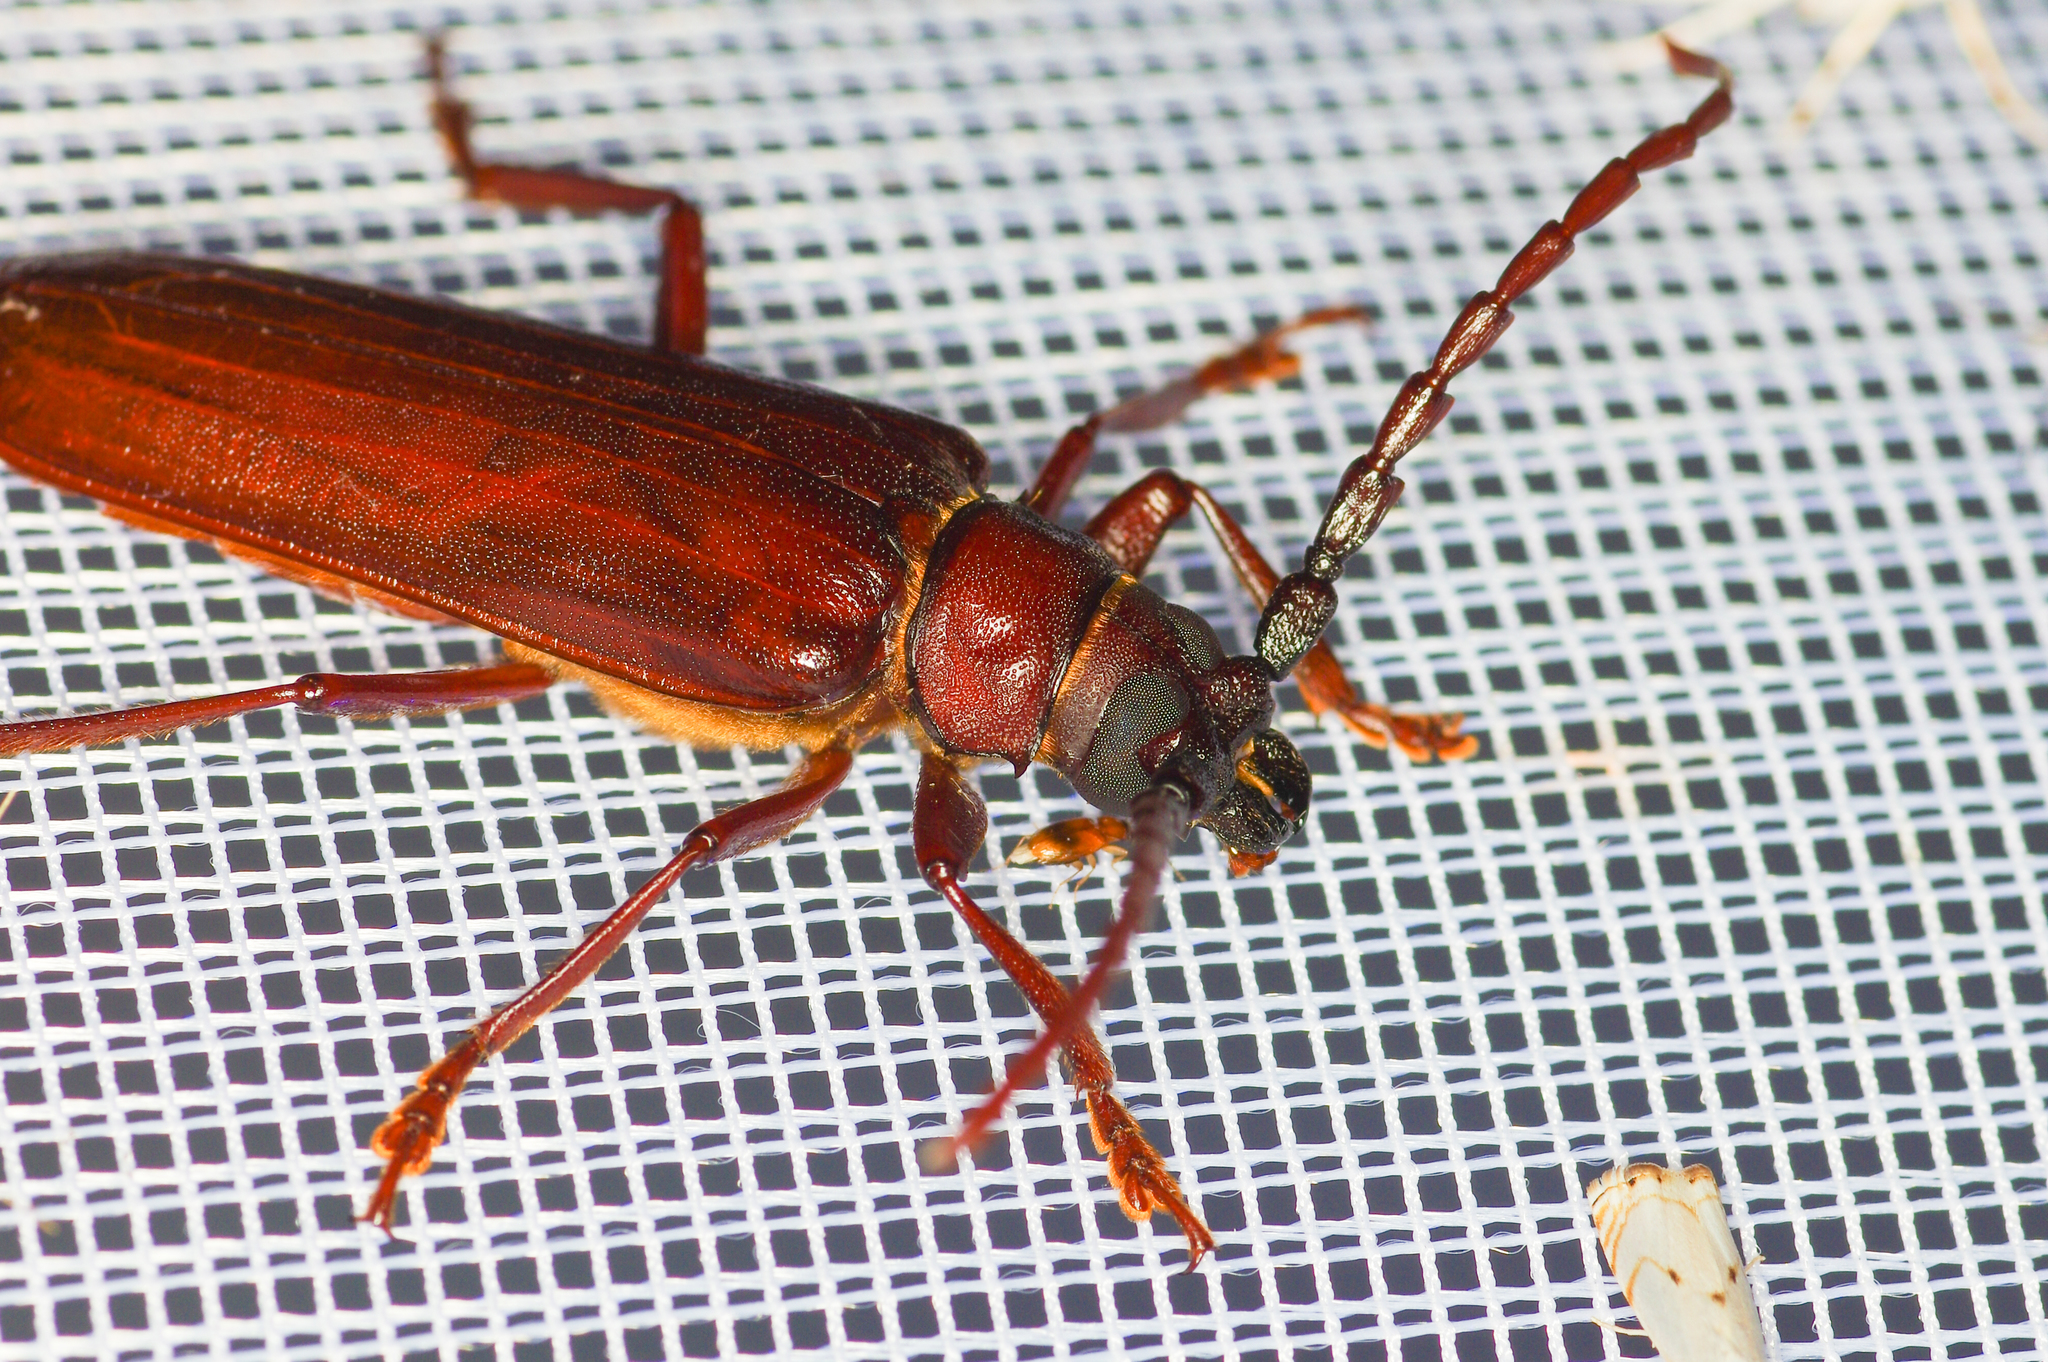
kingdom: Animalia
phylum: Arthropoda
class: Insecta
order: Coleoptera
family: Cerambycidae
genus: Orthosoma
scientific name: Orthosoma brunneum
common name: Brown prionid beetle
